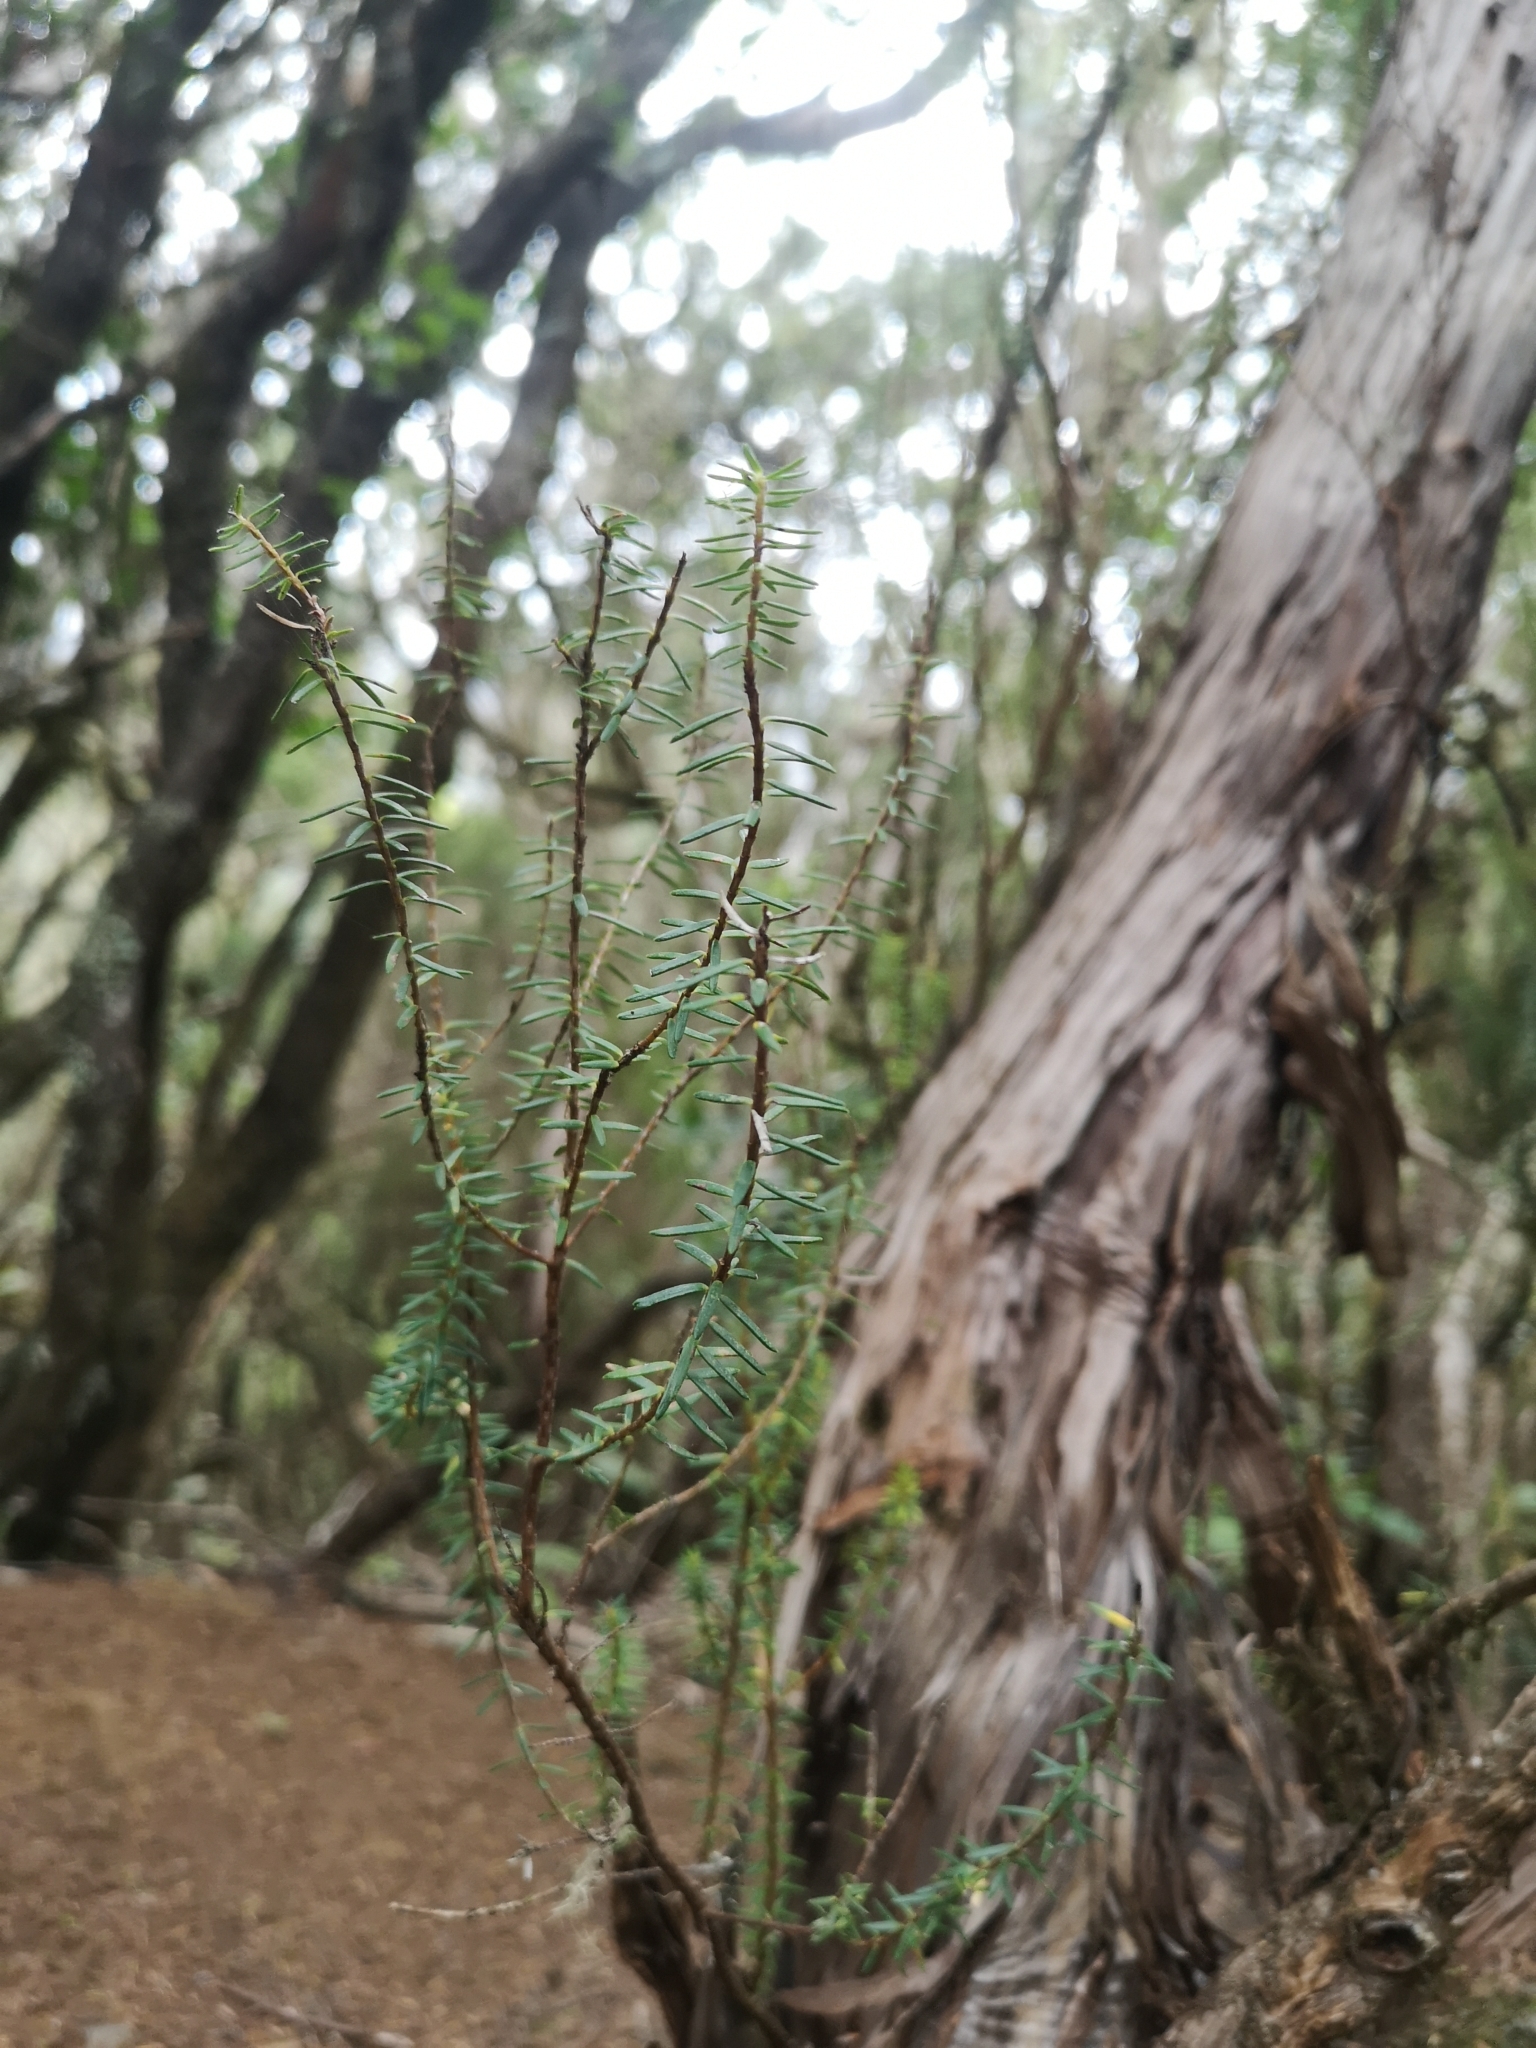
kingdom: Plantae
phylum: Tracheophyta
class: Magnoliopsida
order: Ericales
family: Ericaceae
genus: Erica
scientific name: Erica canariensis
